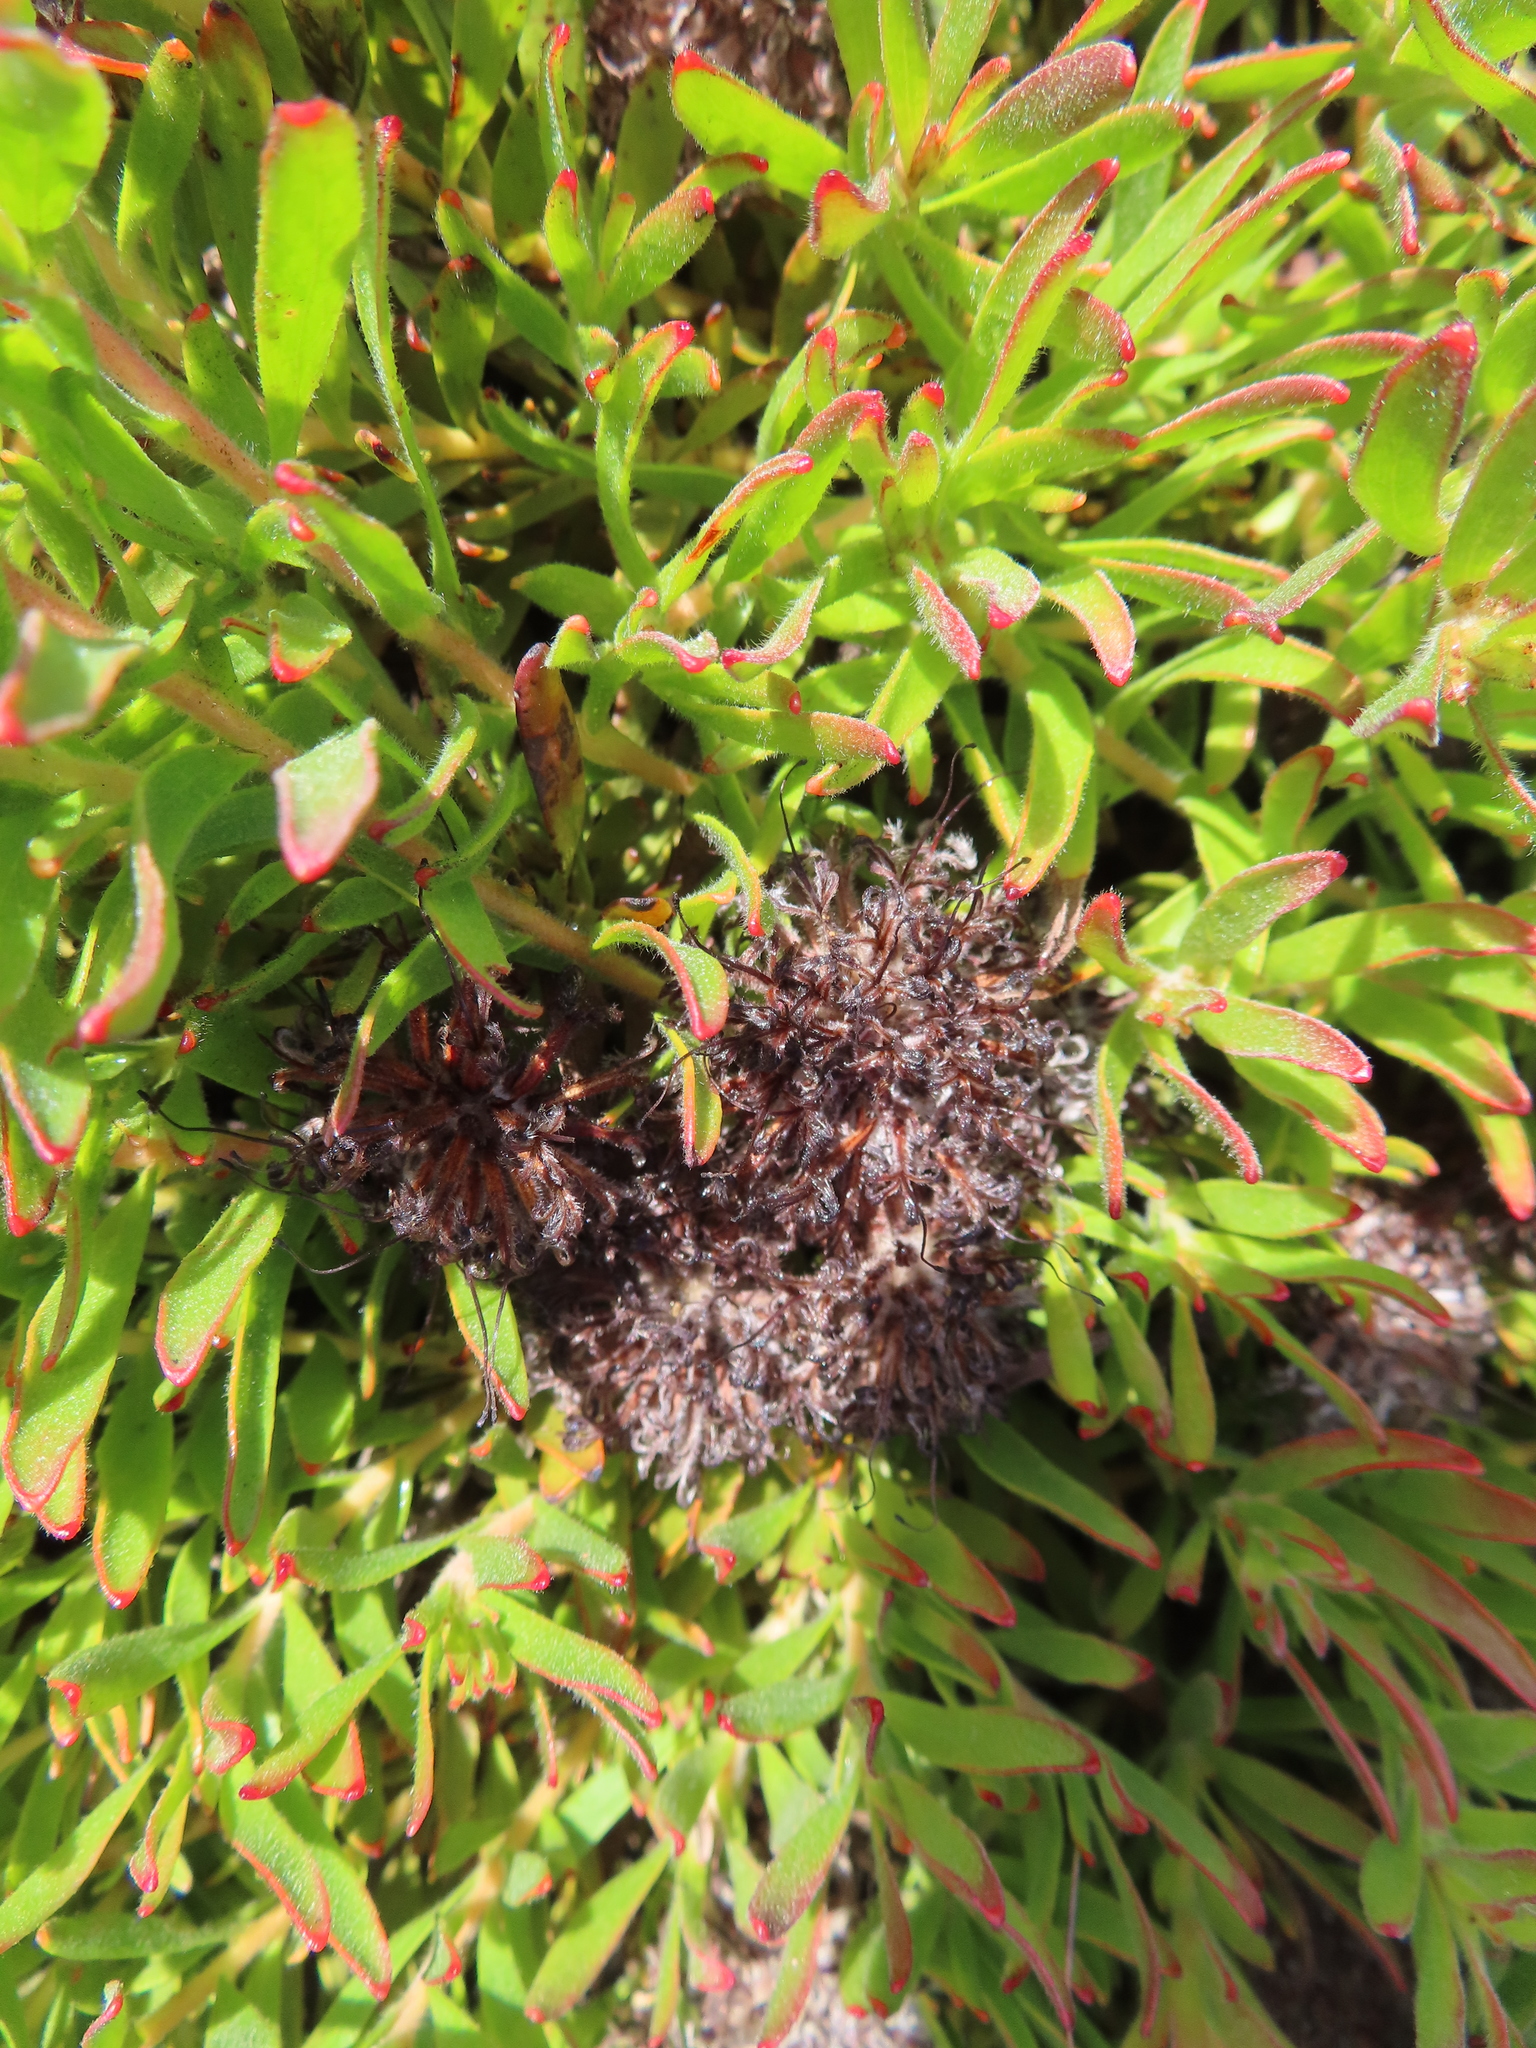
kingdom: Plantae
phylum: Tracheophyta
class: Magnoliopsida
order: Proteales
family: Proteaceae
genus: Leucospermum
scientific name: Leucospermum heterophyllum
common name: Trident pincushion
